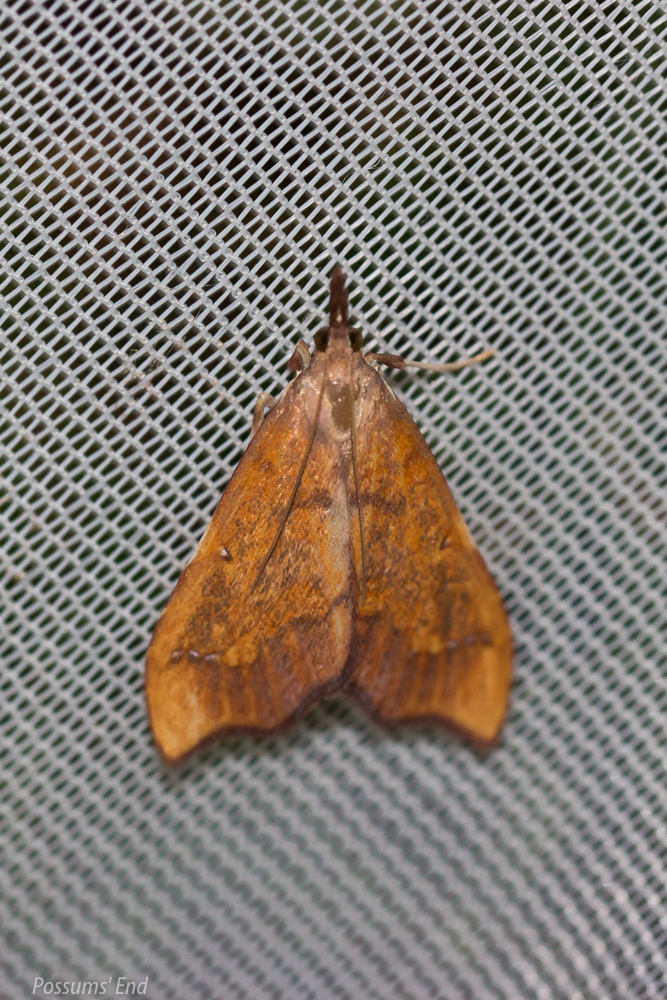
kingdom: Animalia
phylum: Arthropoda
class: Insecta
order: Lepidoptera
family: Crambidae
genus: Deana
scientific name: Deana hybreasalis
